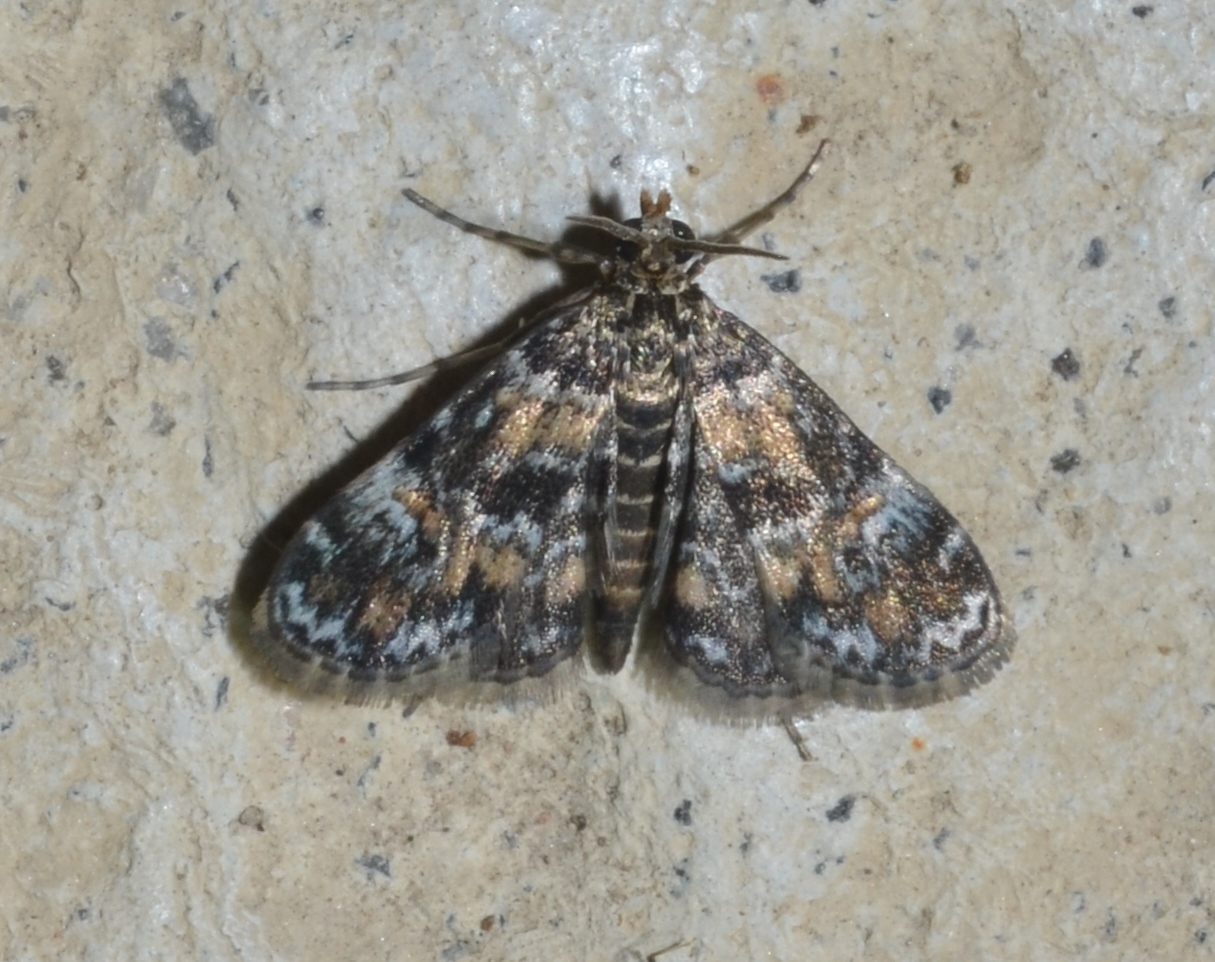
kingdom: Animalia
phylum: Arthropoda
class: Insecta
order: Lepidoptera
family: Crambidae
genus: Elophila
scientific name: Elophila obliteralis
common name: Waterlily leafcutter moth
